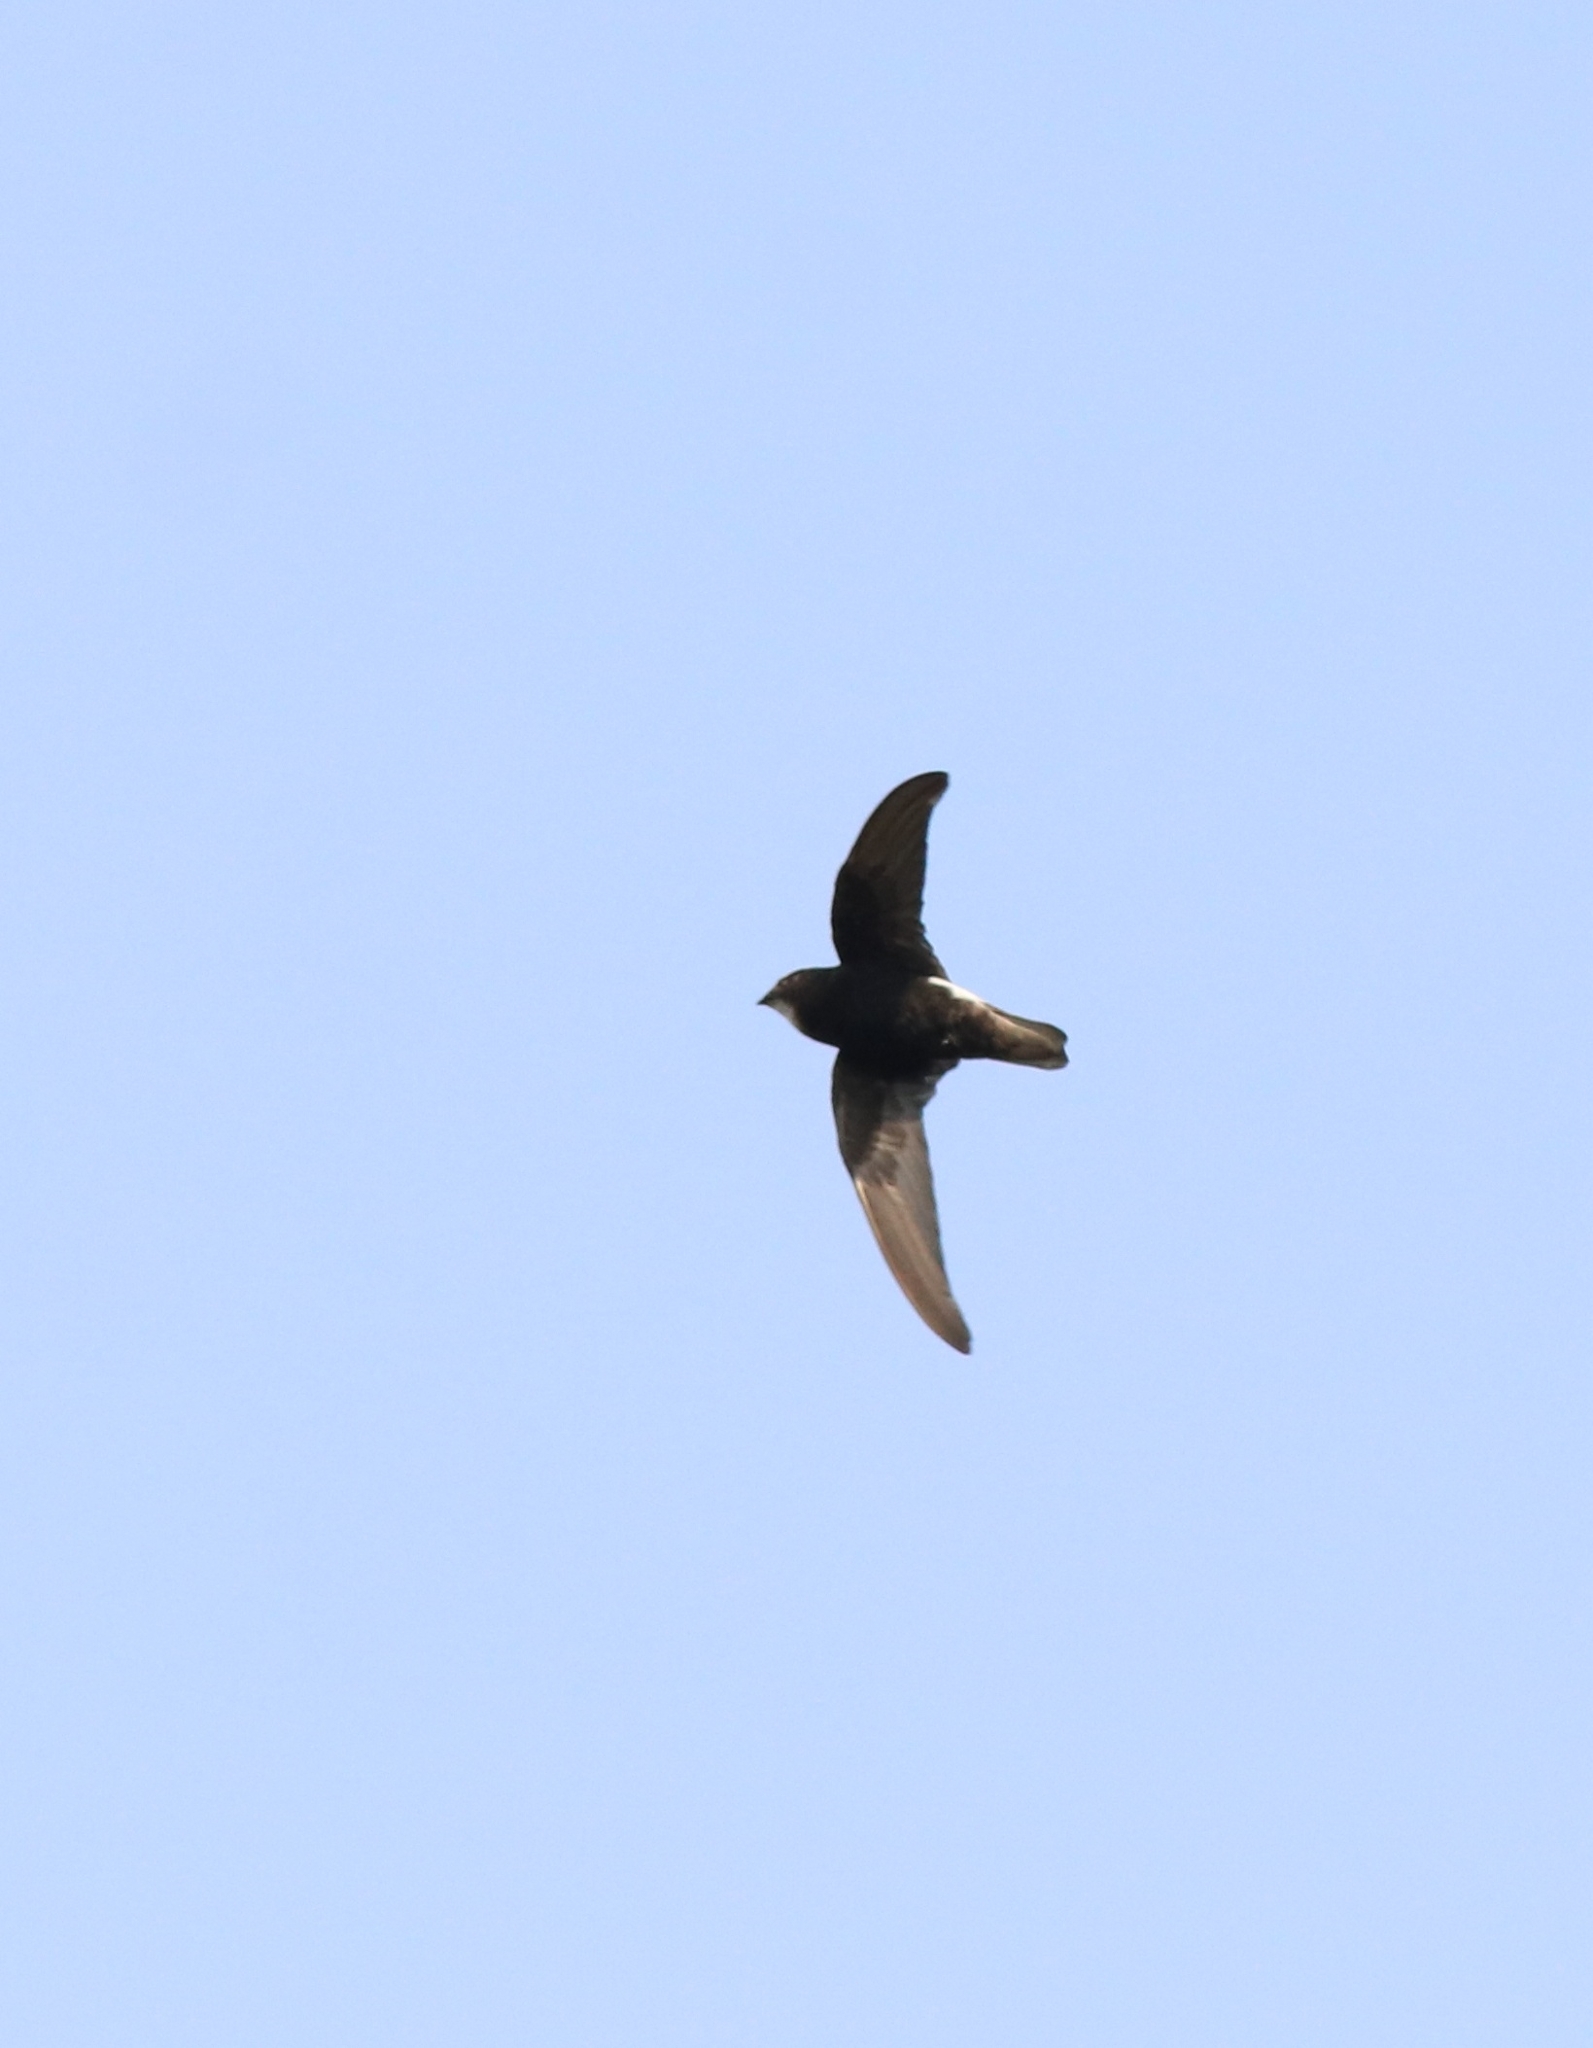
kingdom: Animalia
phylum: Chordata
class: Aves
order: Apodiformes
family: Apodidae
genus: Apus
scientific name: Apus affinis
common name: Little swift
